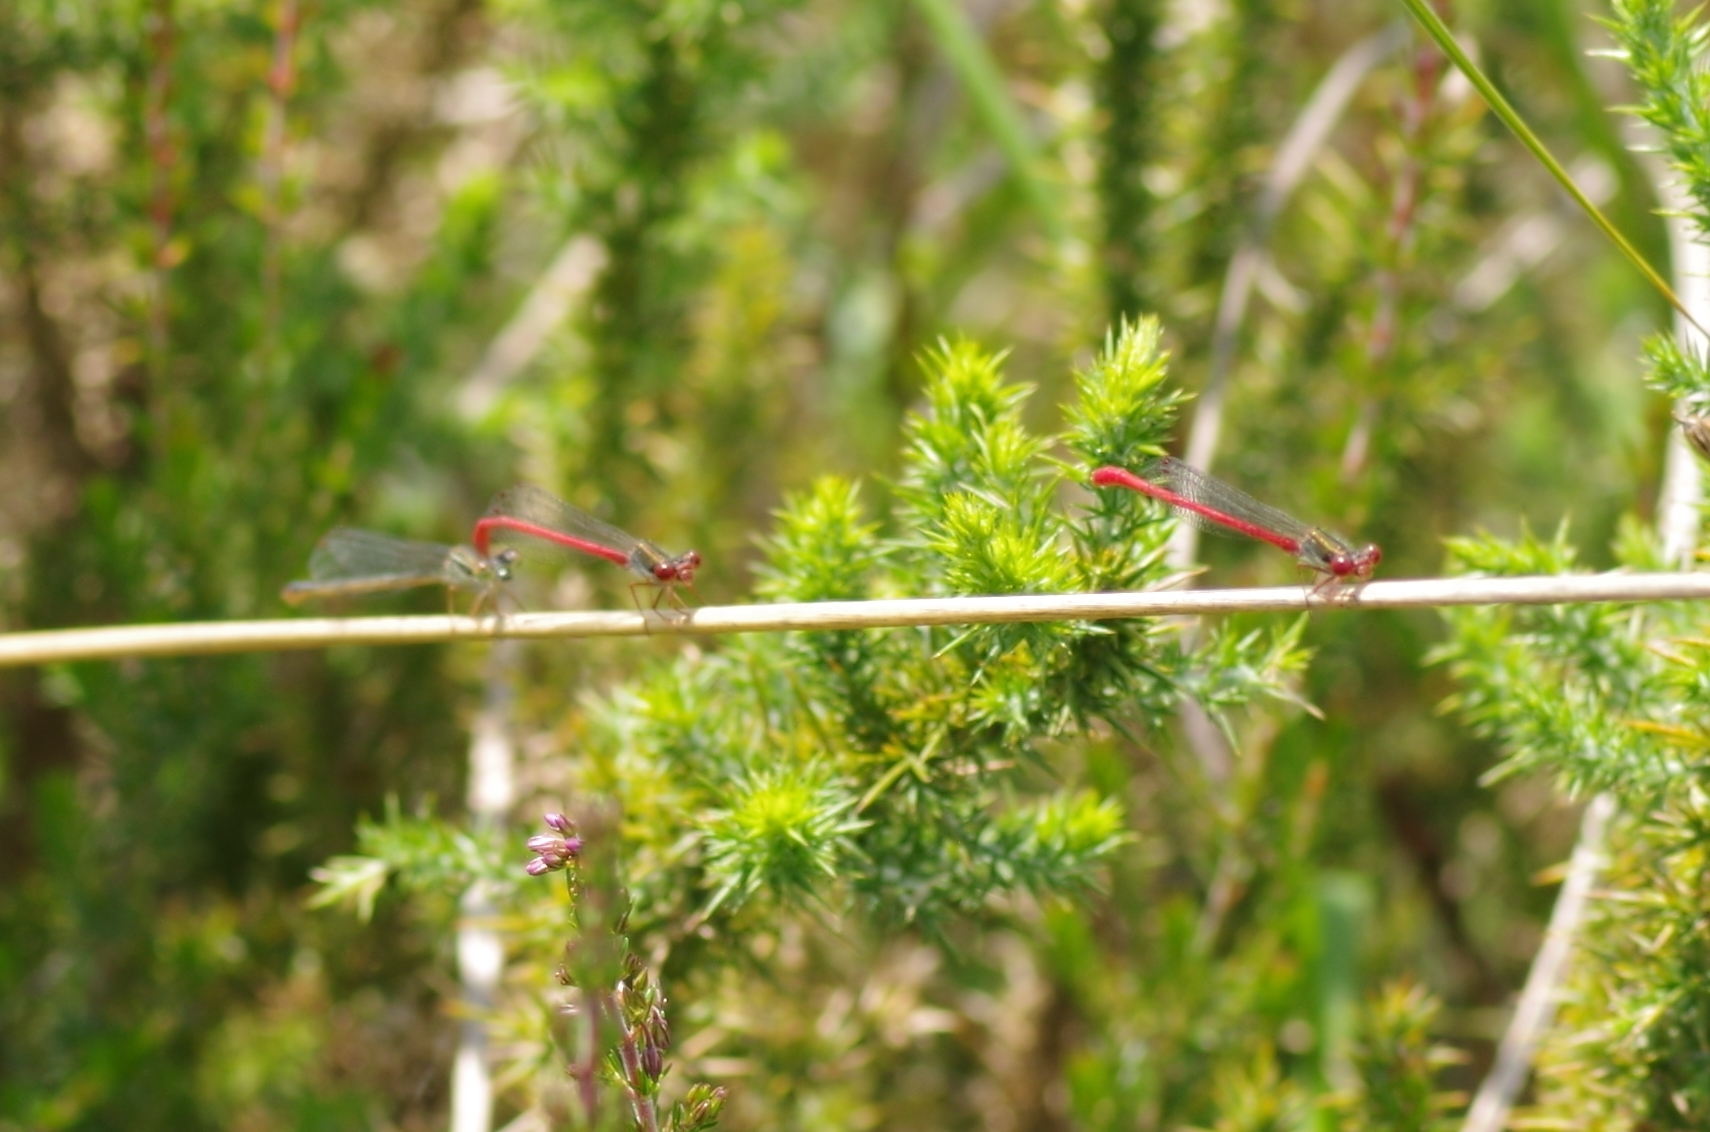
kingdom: Animalia
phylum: Arthropoda
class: Insecta
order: Odonata
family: Coenagrionidae
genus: Ceriagrion
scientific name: Ceriagrion tenellum
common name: Small red damselfly
